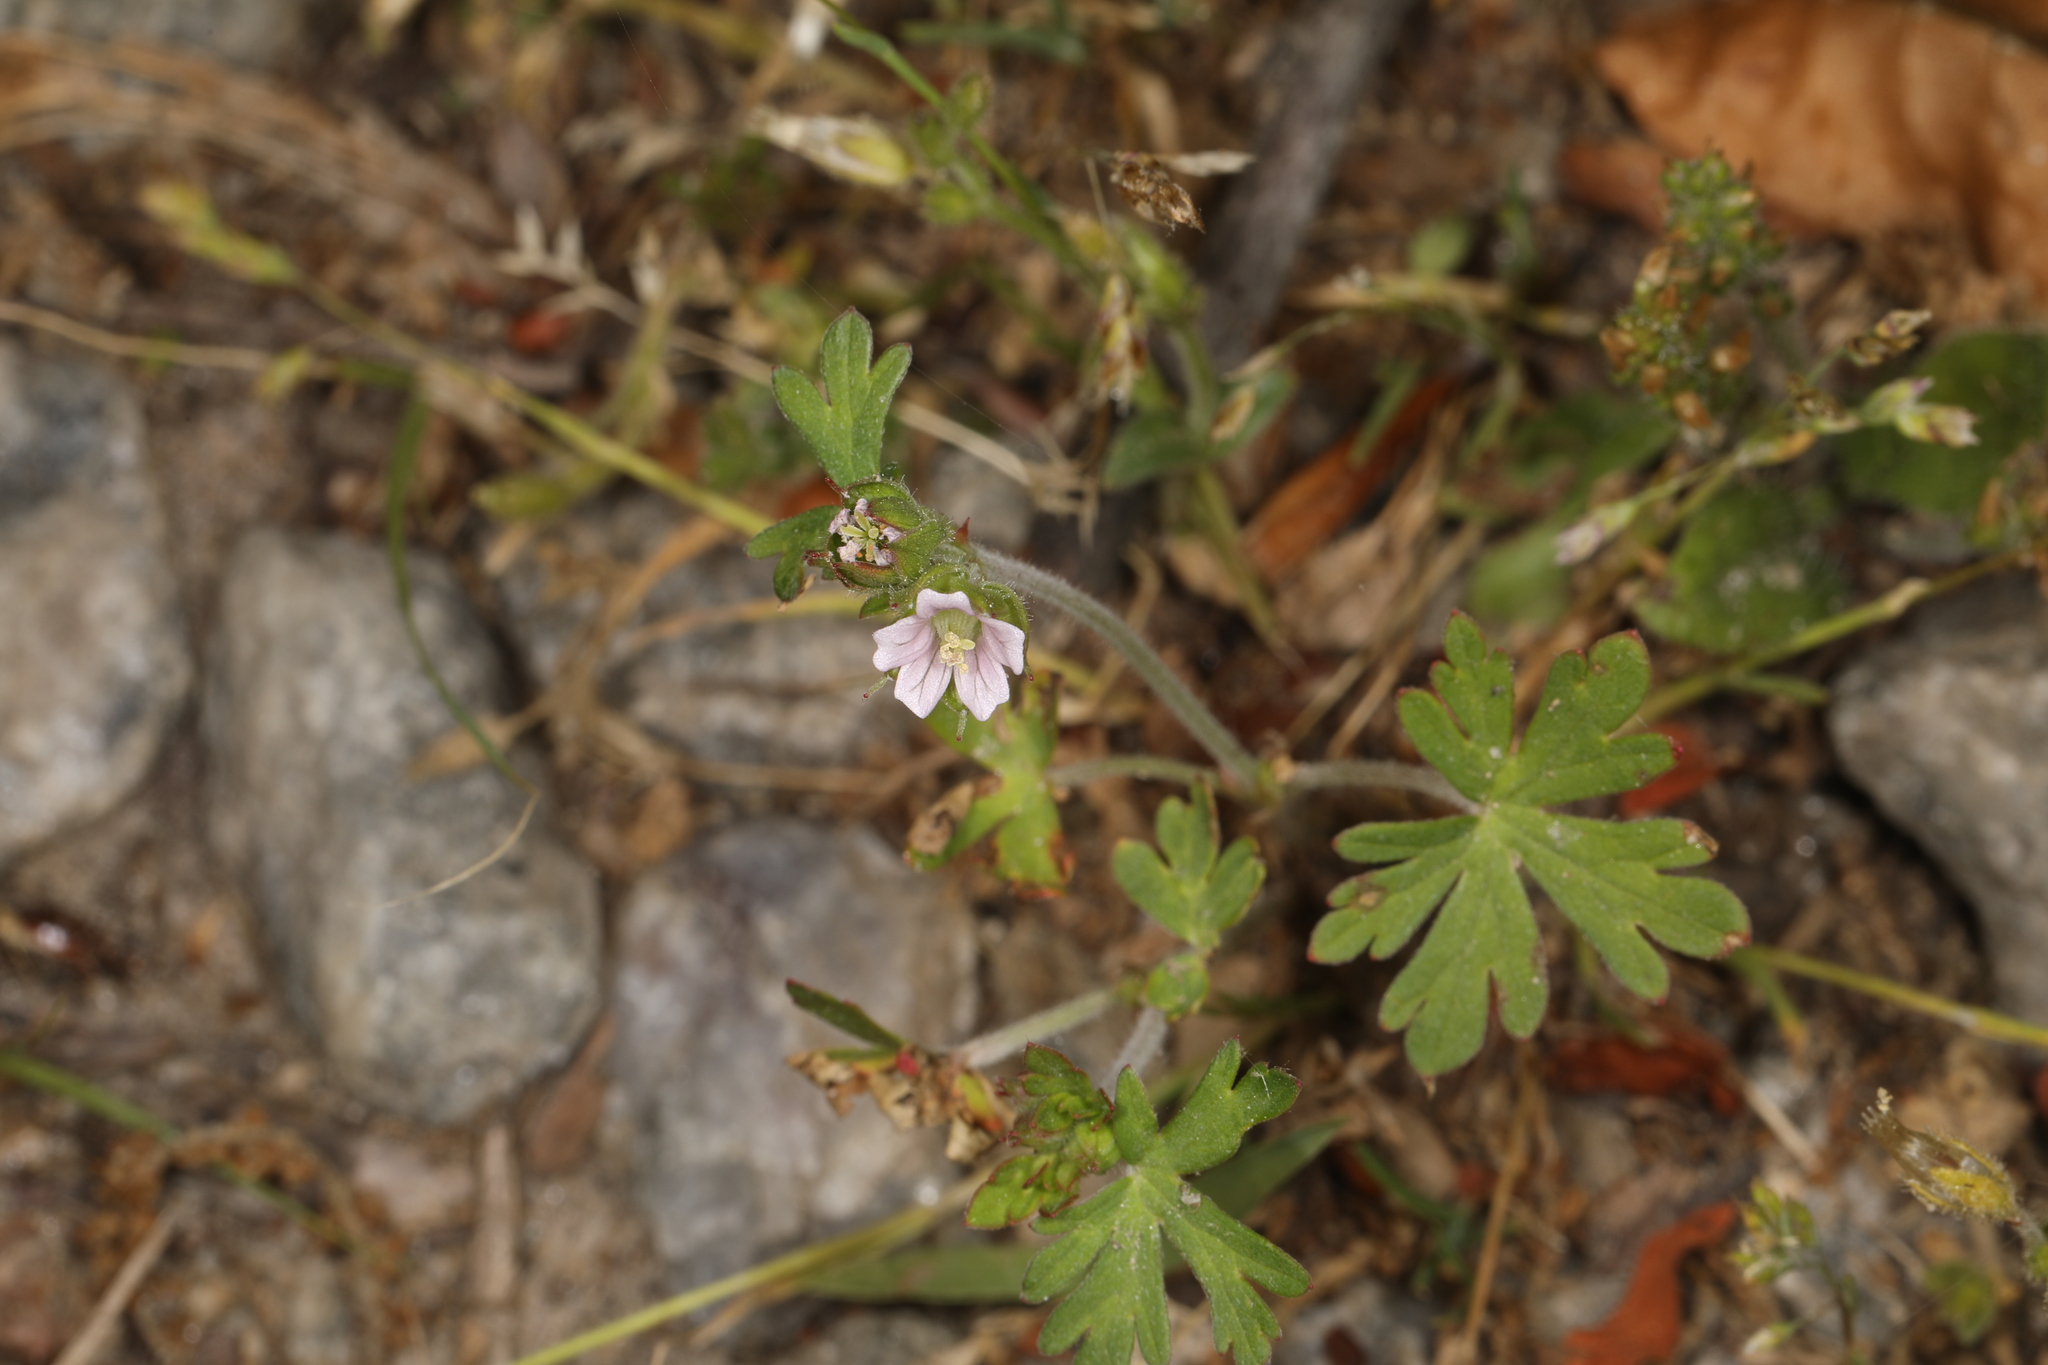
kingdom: Plantae
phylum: Tracheophyta
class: Magnoliopsida
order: Geraniales
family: Geraniaceae
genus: Geranium
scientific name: Geranium carolinianum
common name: Carolina crane's-bill
